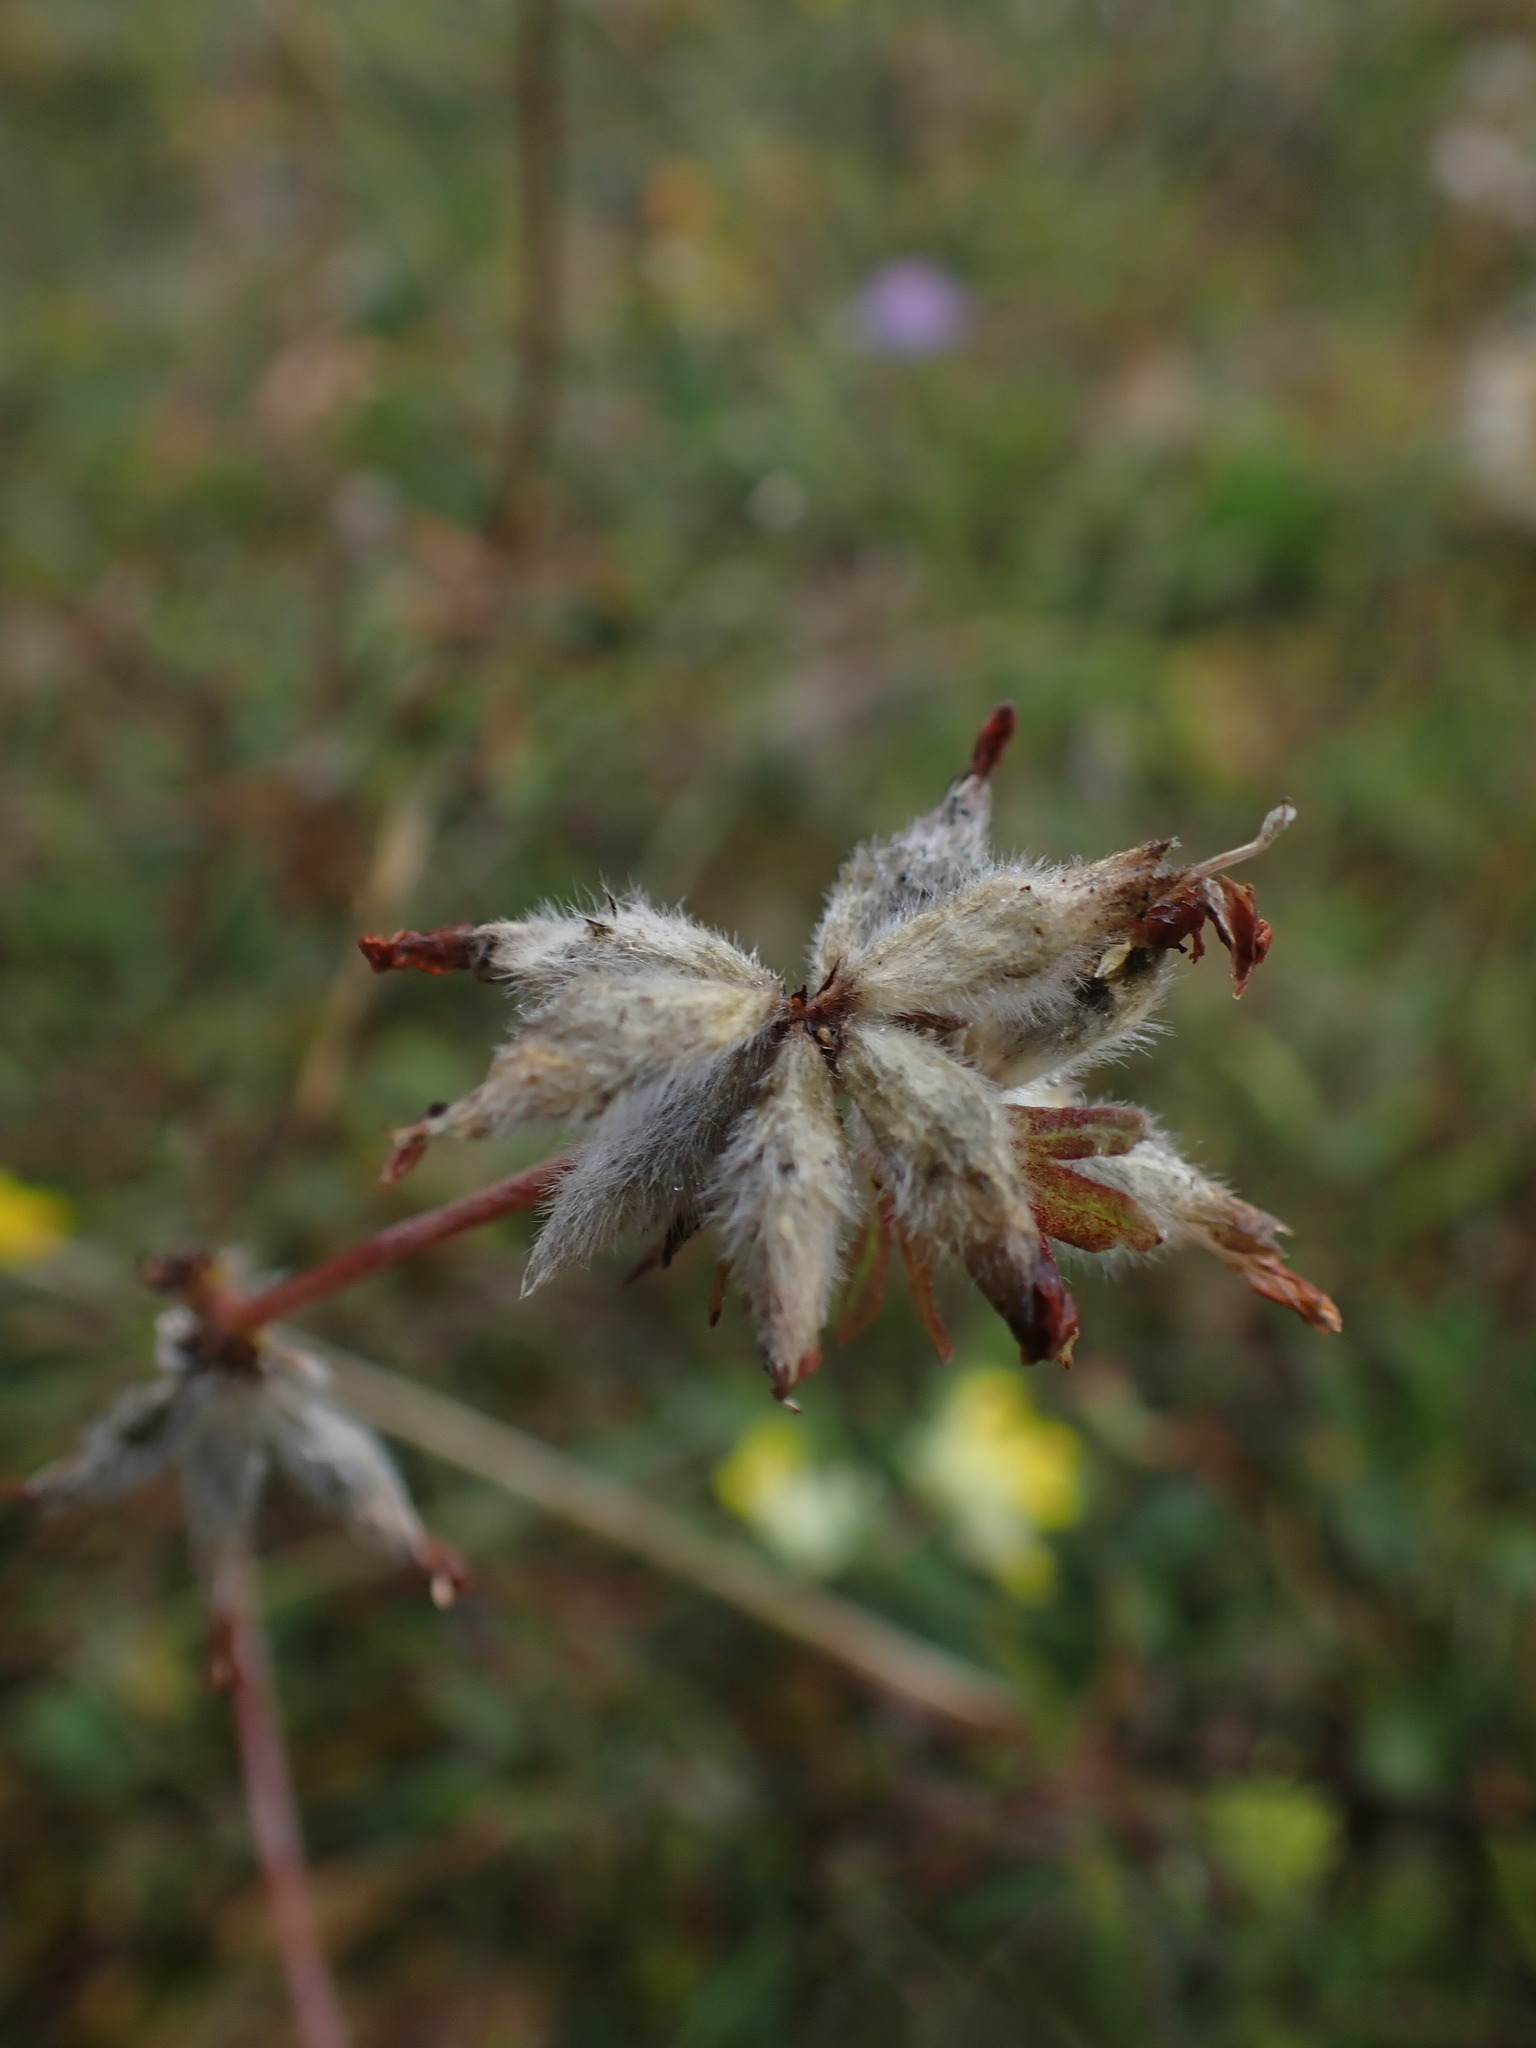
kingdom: Plantae
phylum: Tracheophyta
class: Magnoliopsida
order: Fabales
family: Fabaceae
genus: Anthyllis
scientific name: Anthyllis vulneraria
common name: Kidney vetch
